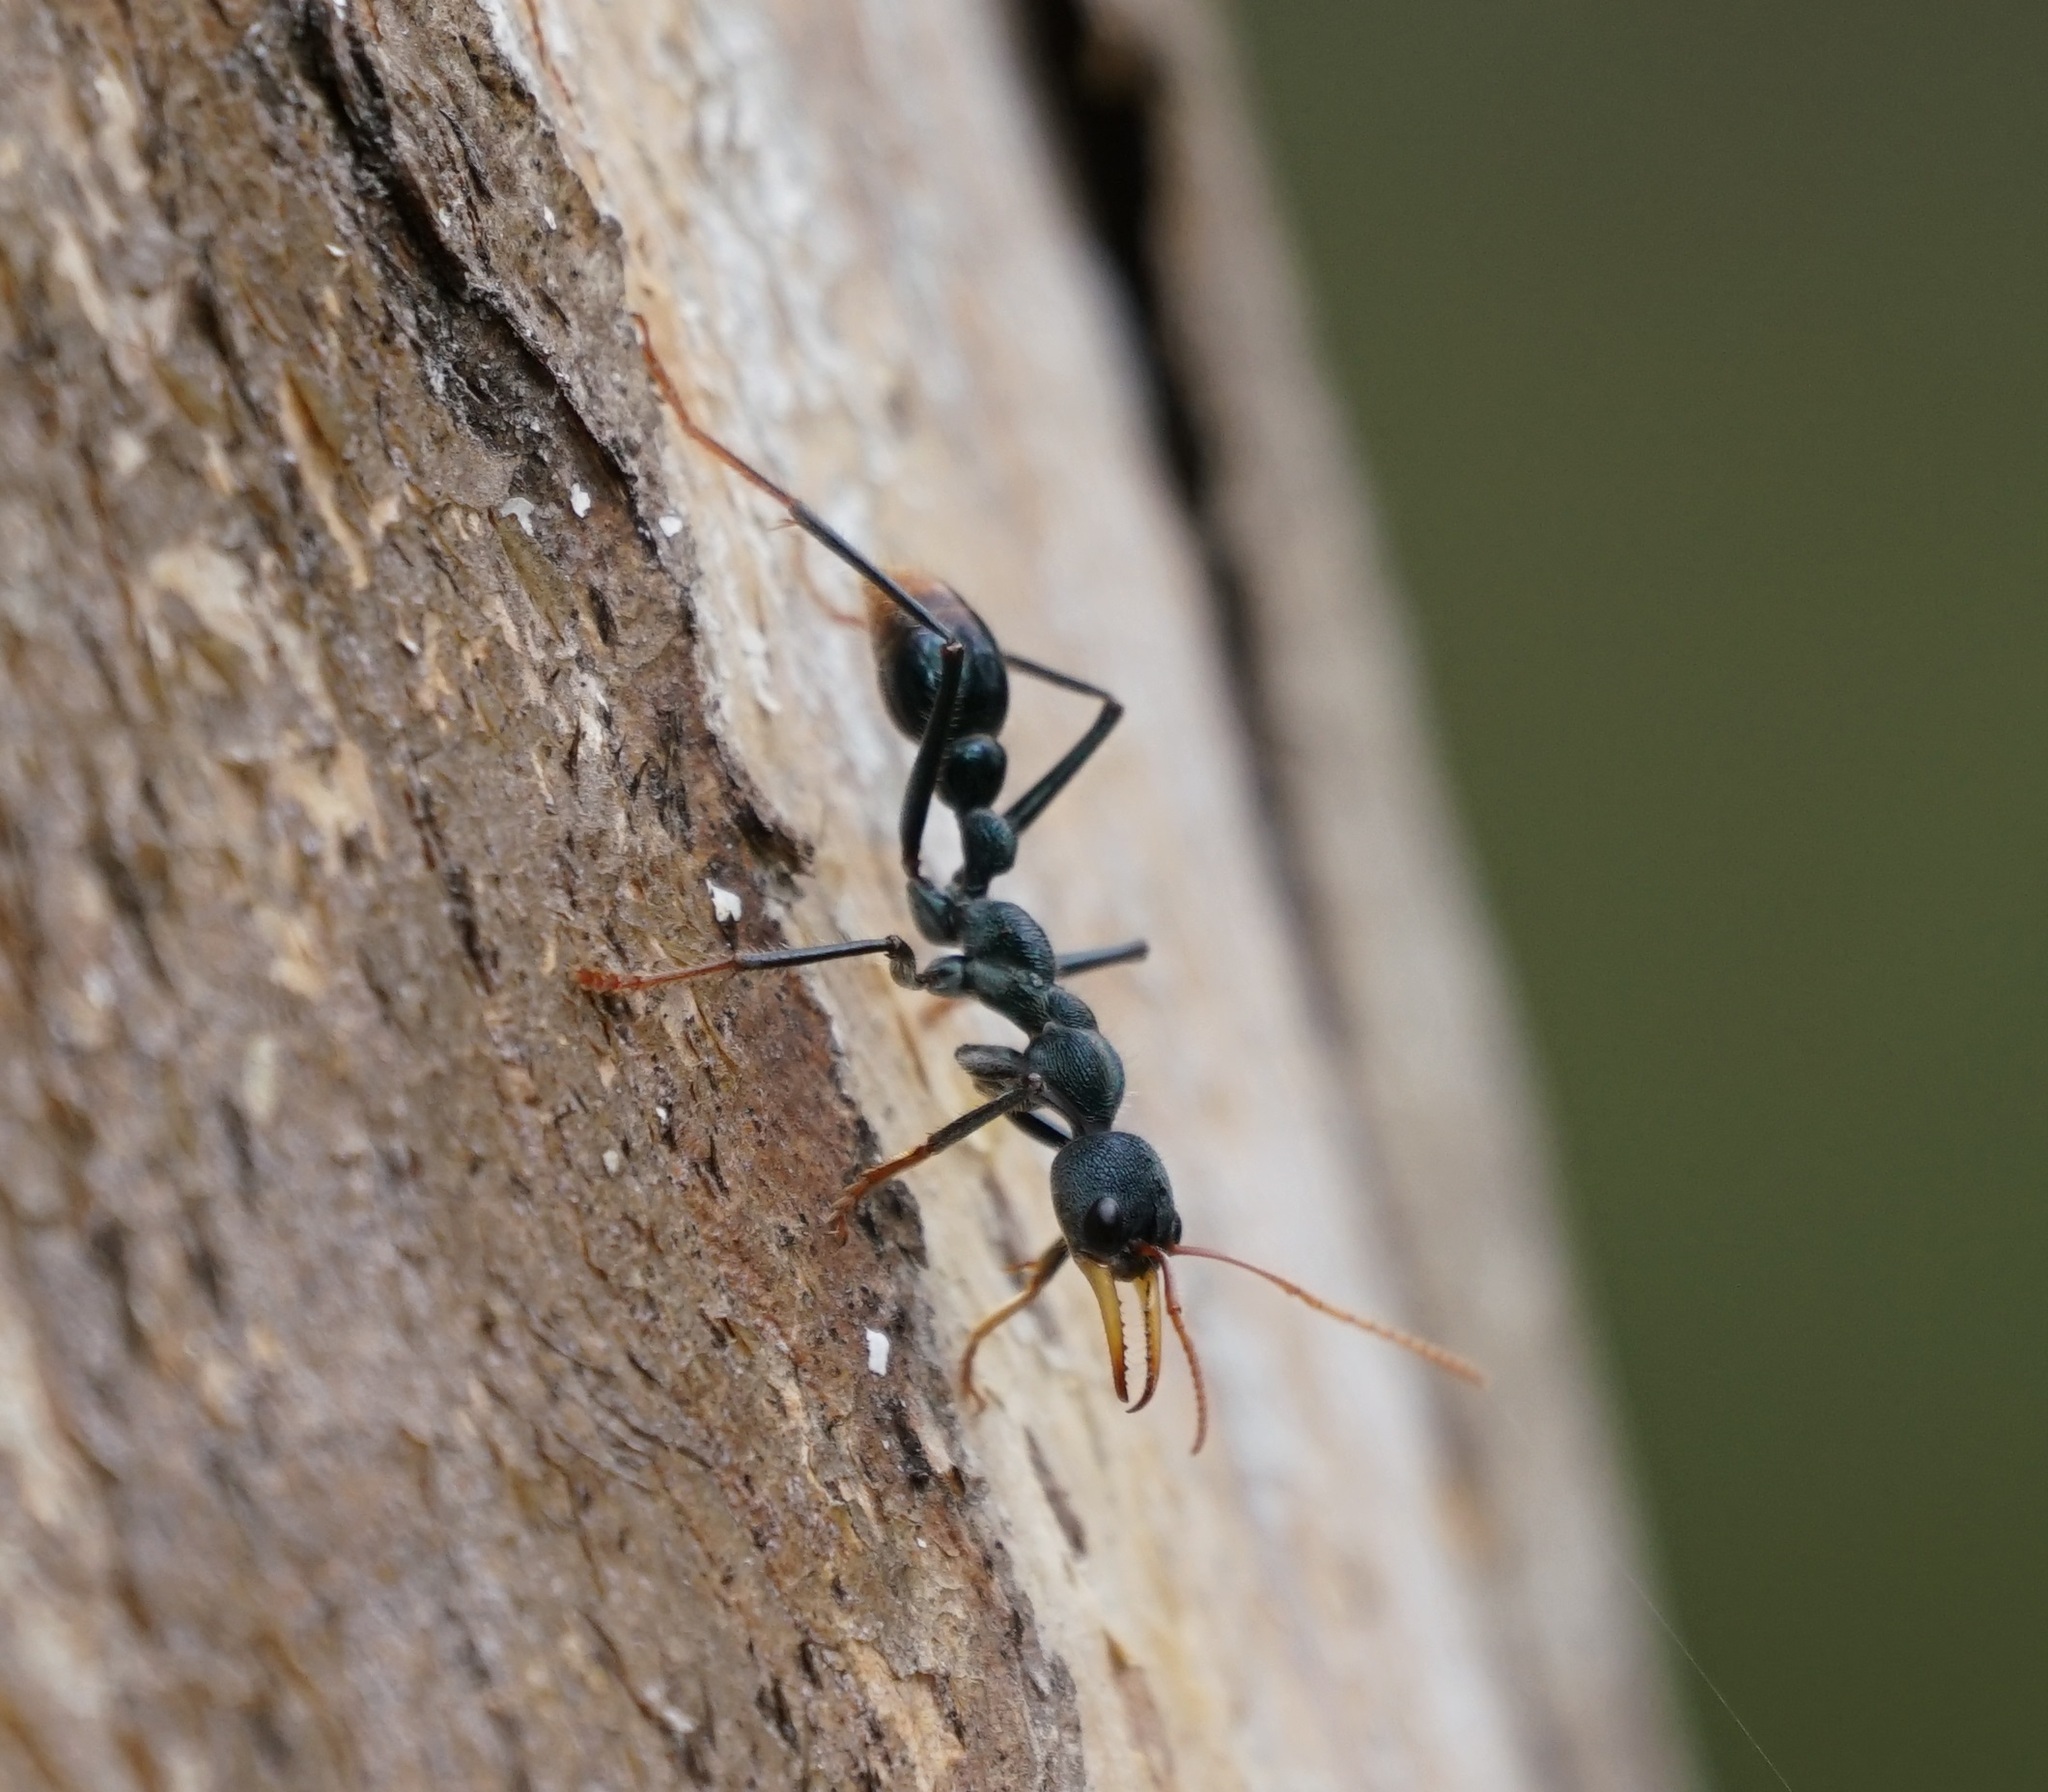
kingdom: Animalia
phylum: Arthropoda
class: Insecta
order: Hymenoptera
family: Formicidae
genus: Myrmecia
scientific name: Myrmecia tarsata
